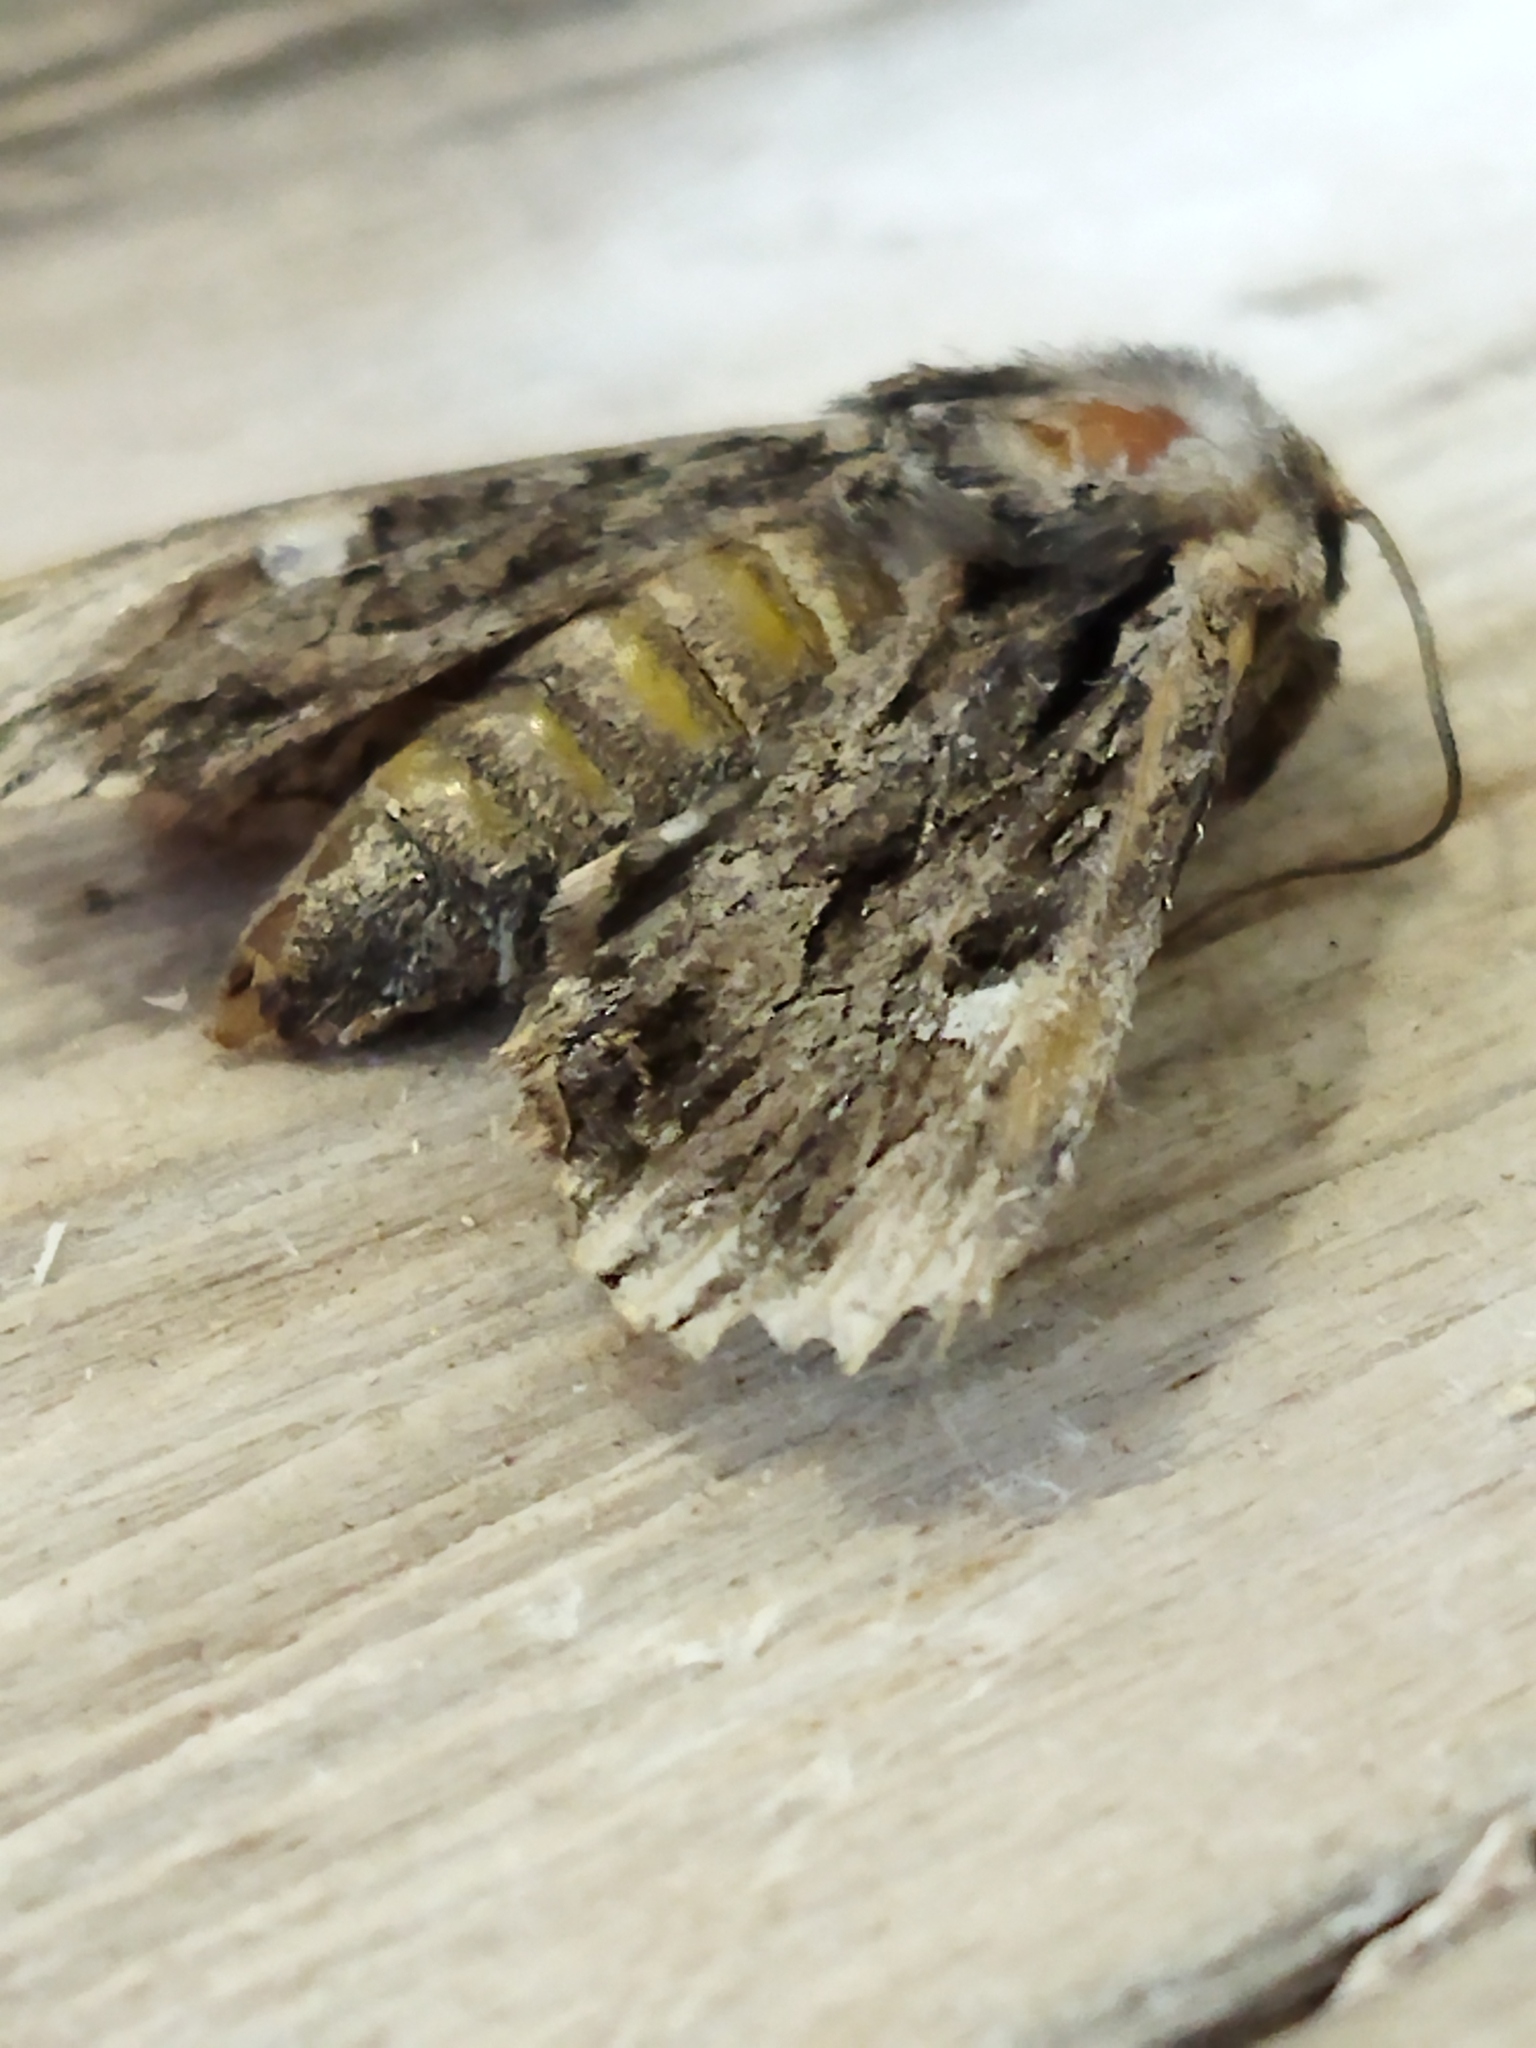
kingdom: Animalia
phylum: Arthropoda
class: Insecta
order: Lepidoptera
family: Noctuidae
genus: Polymixis
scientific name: Polymixis trisignata
